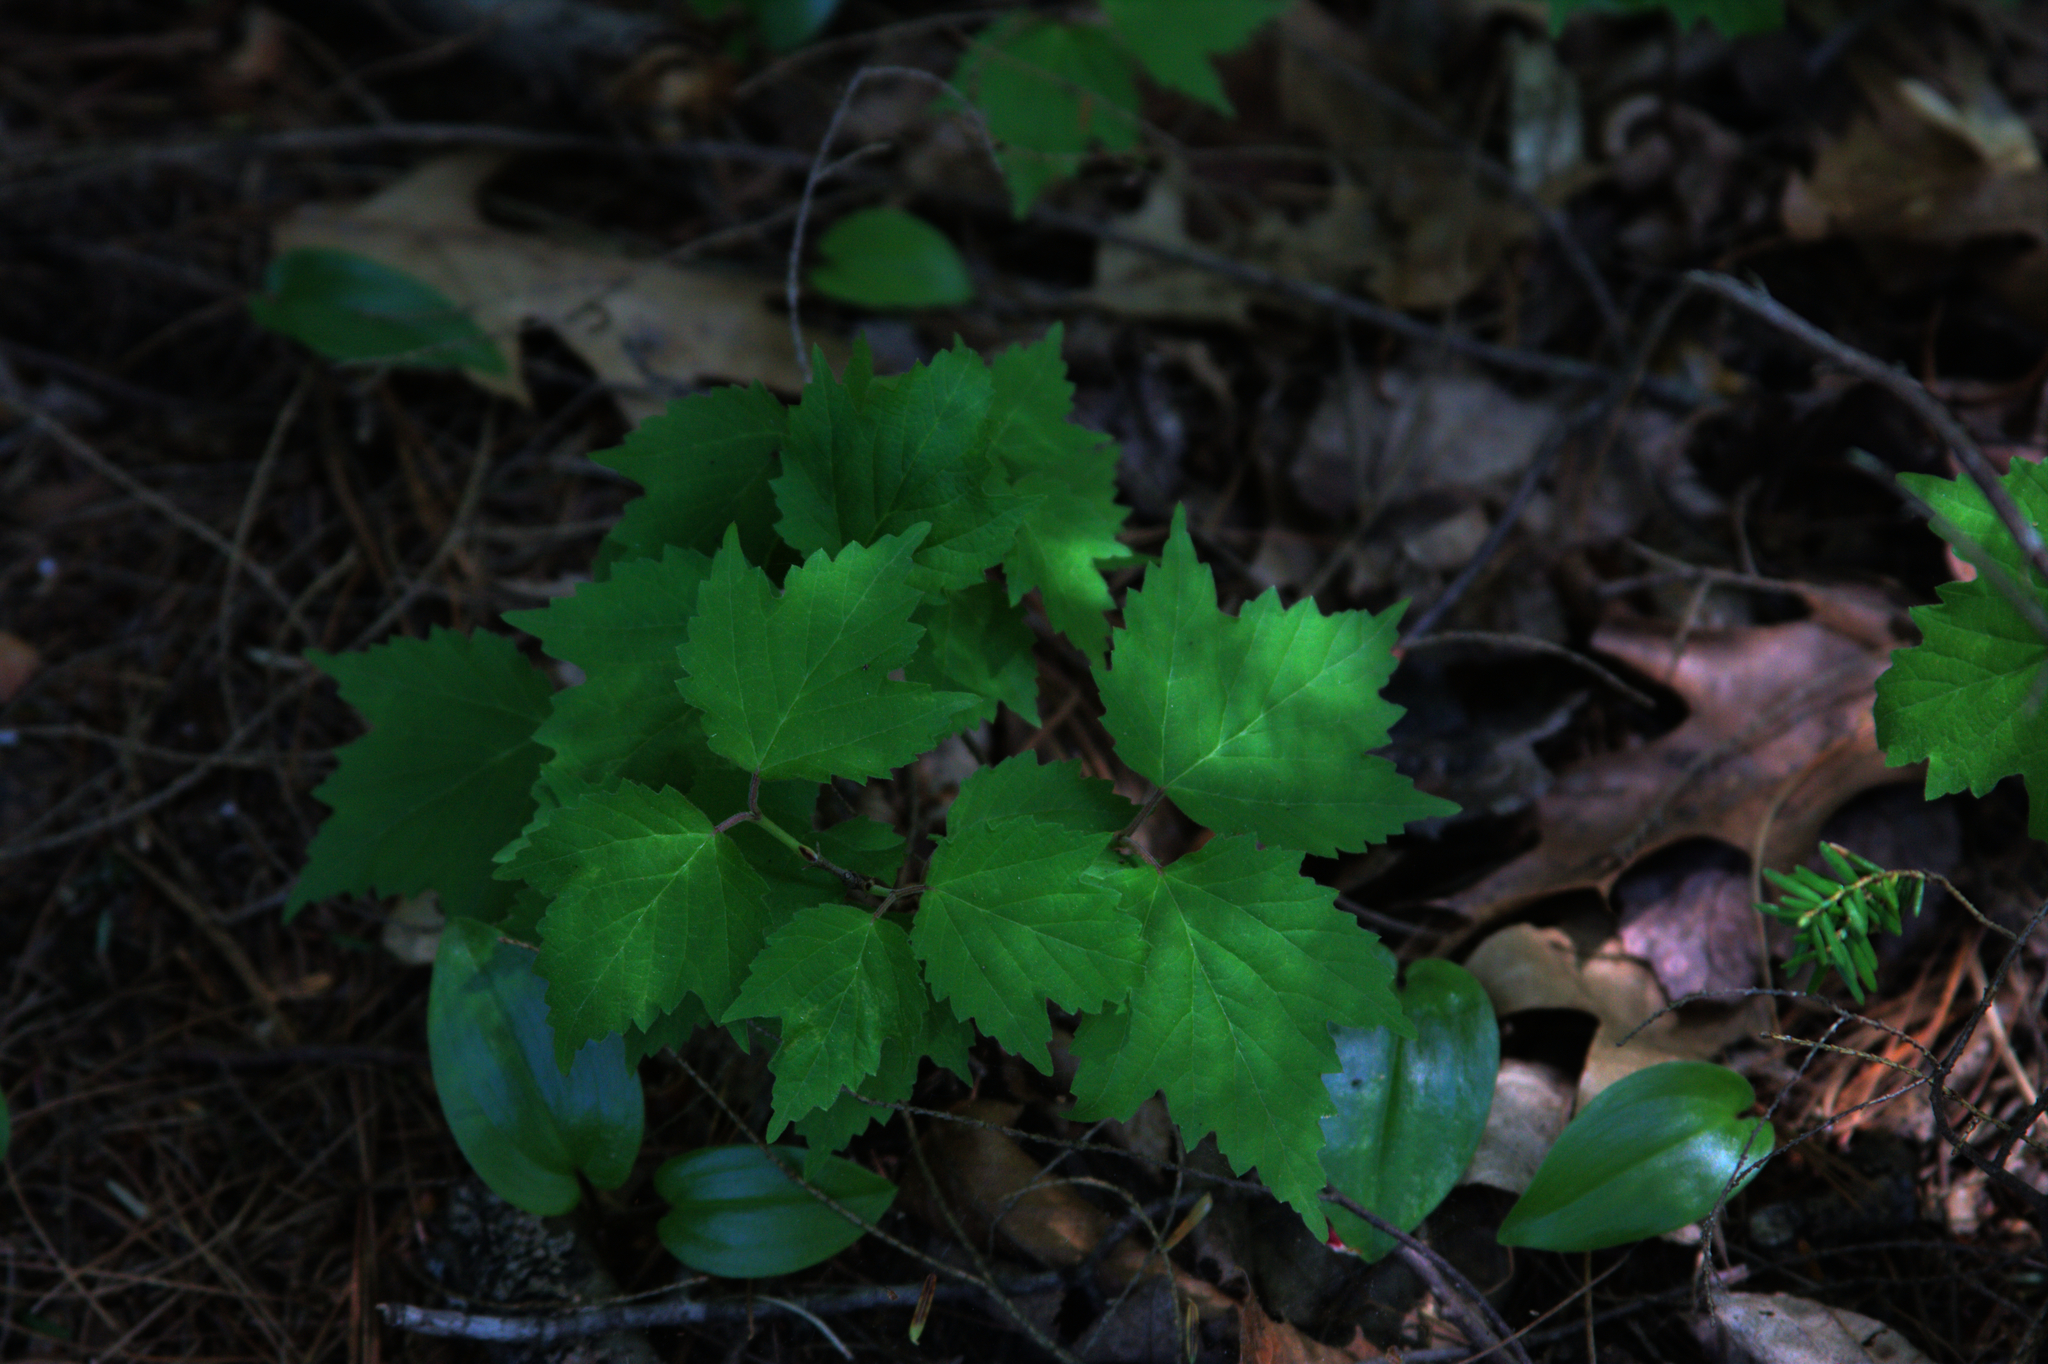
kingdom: Plantae
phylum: Tracheophyta
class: Liliopsida
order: Asparagales
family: Asparagaceae
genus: Maianthemum
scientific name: Maianthemum canadense
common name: False lily-of-the-valley
